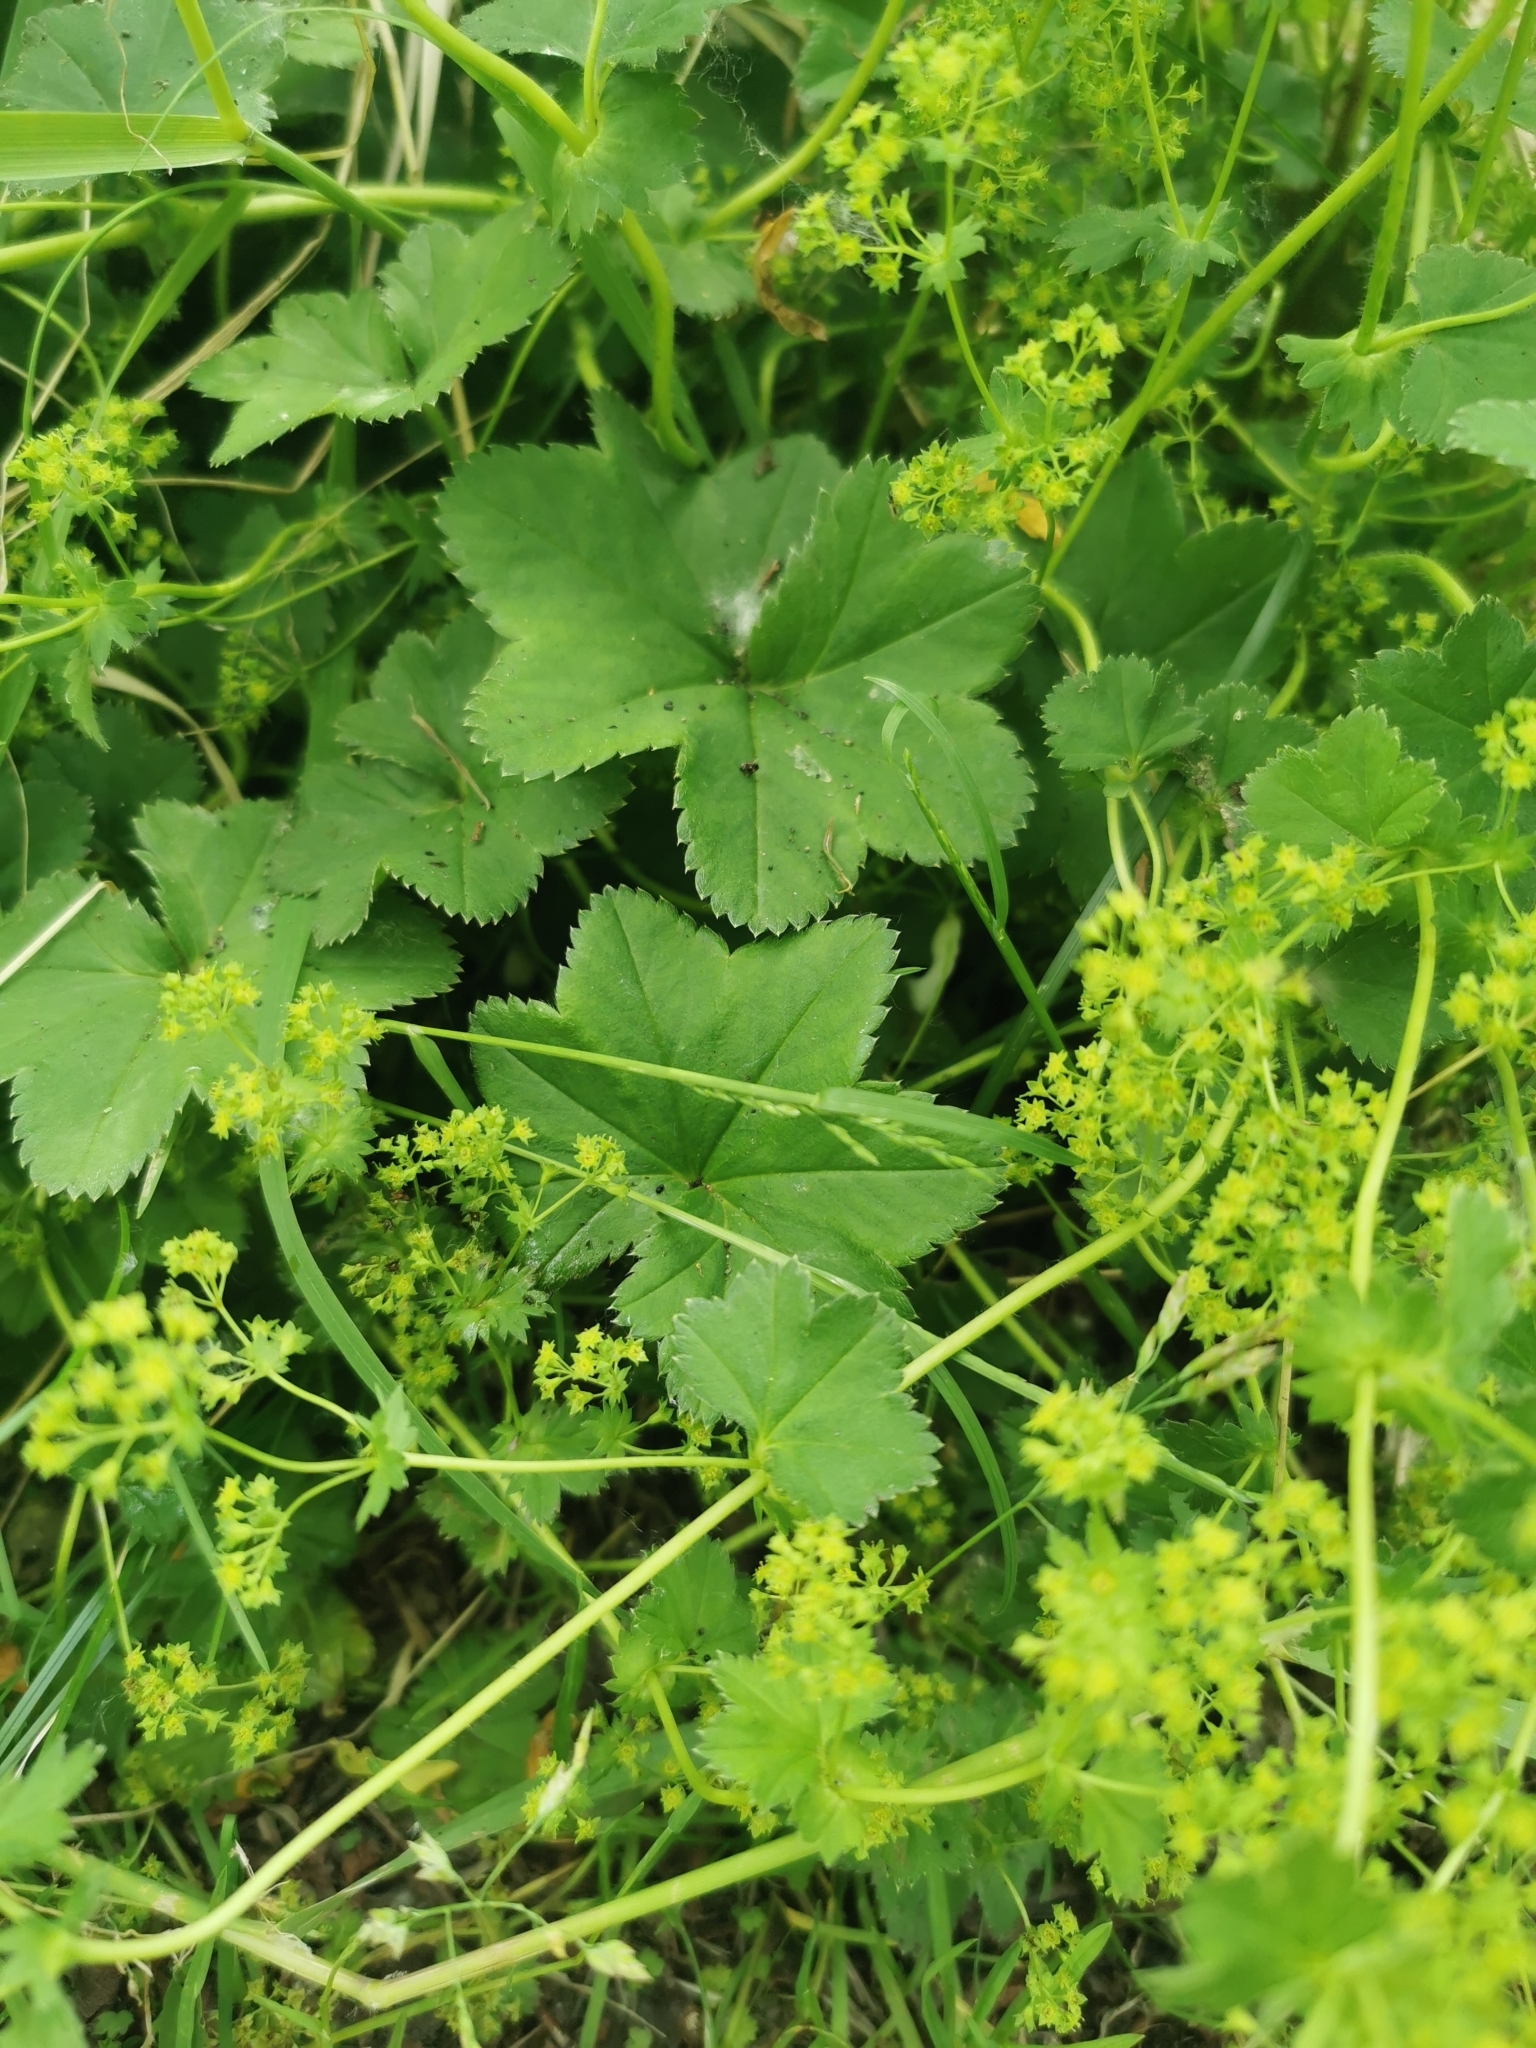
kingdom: Plantae
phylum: Tracheophyta
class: Magnoliopsida
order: Rosales
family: Rosaceae
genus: Alchemilla
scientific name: Alchemilla subcrenata
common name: Broadtooth lady's mantle
